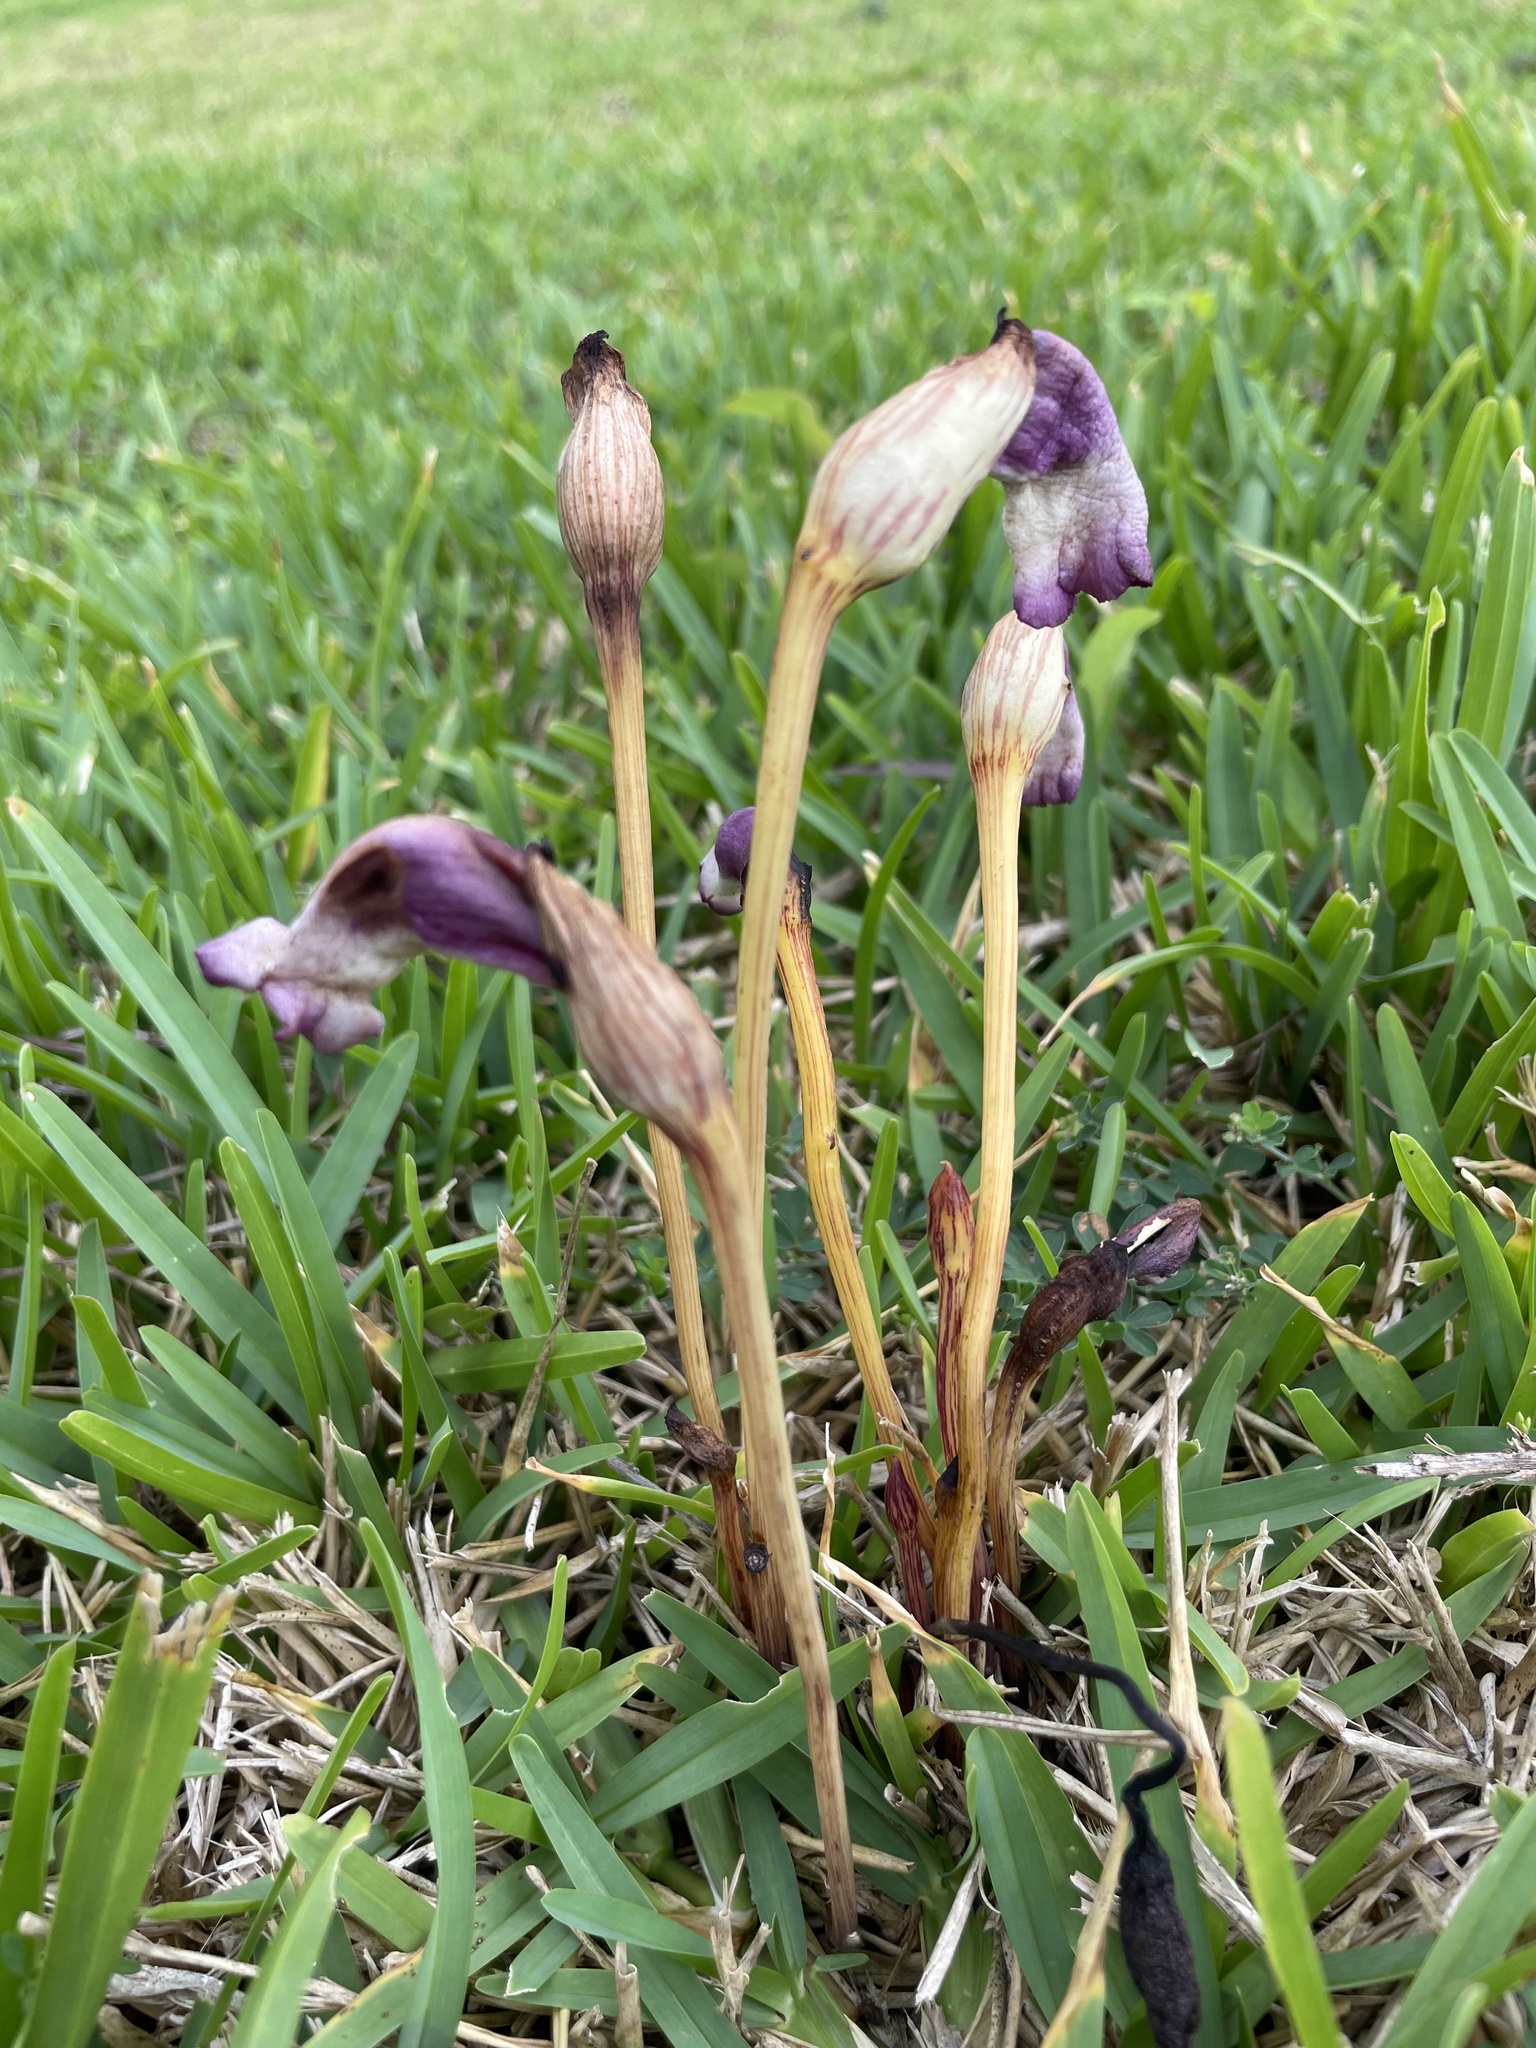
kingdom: Plantae
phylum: Tracheophyta
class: Magnoliopsida
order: Lamiales
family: Orobanchaceae
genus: Aeginetia
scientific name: Aeginetia indica
